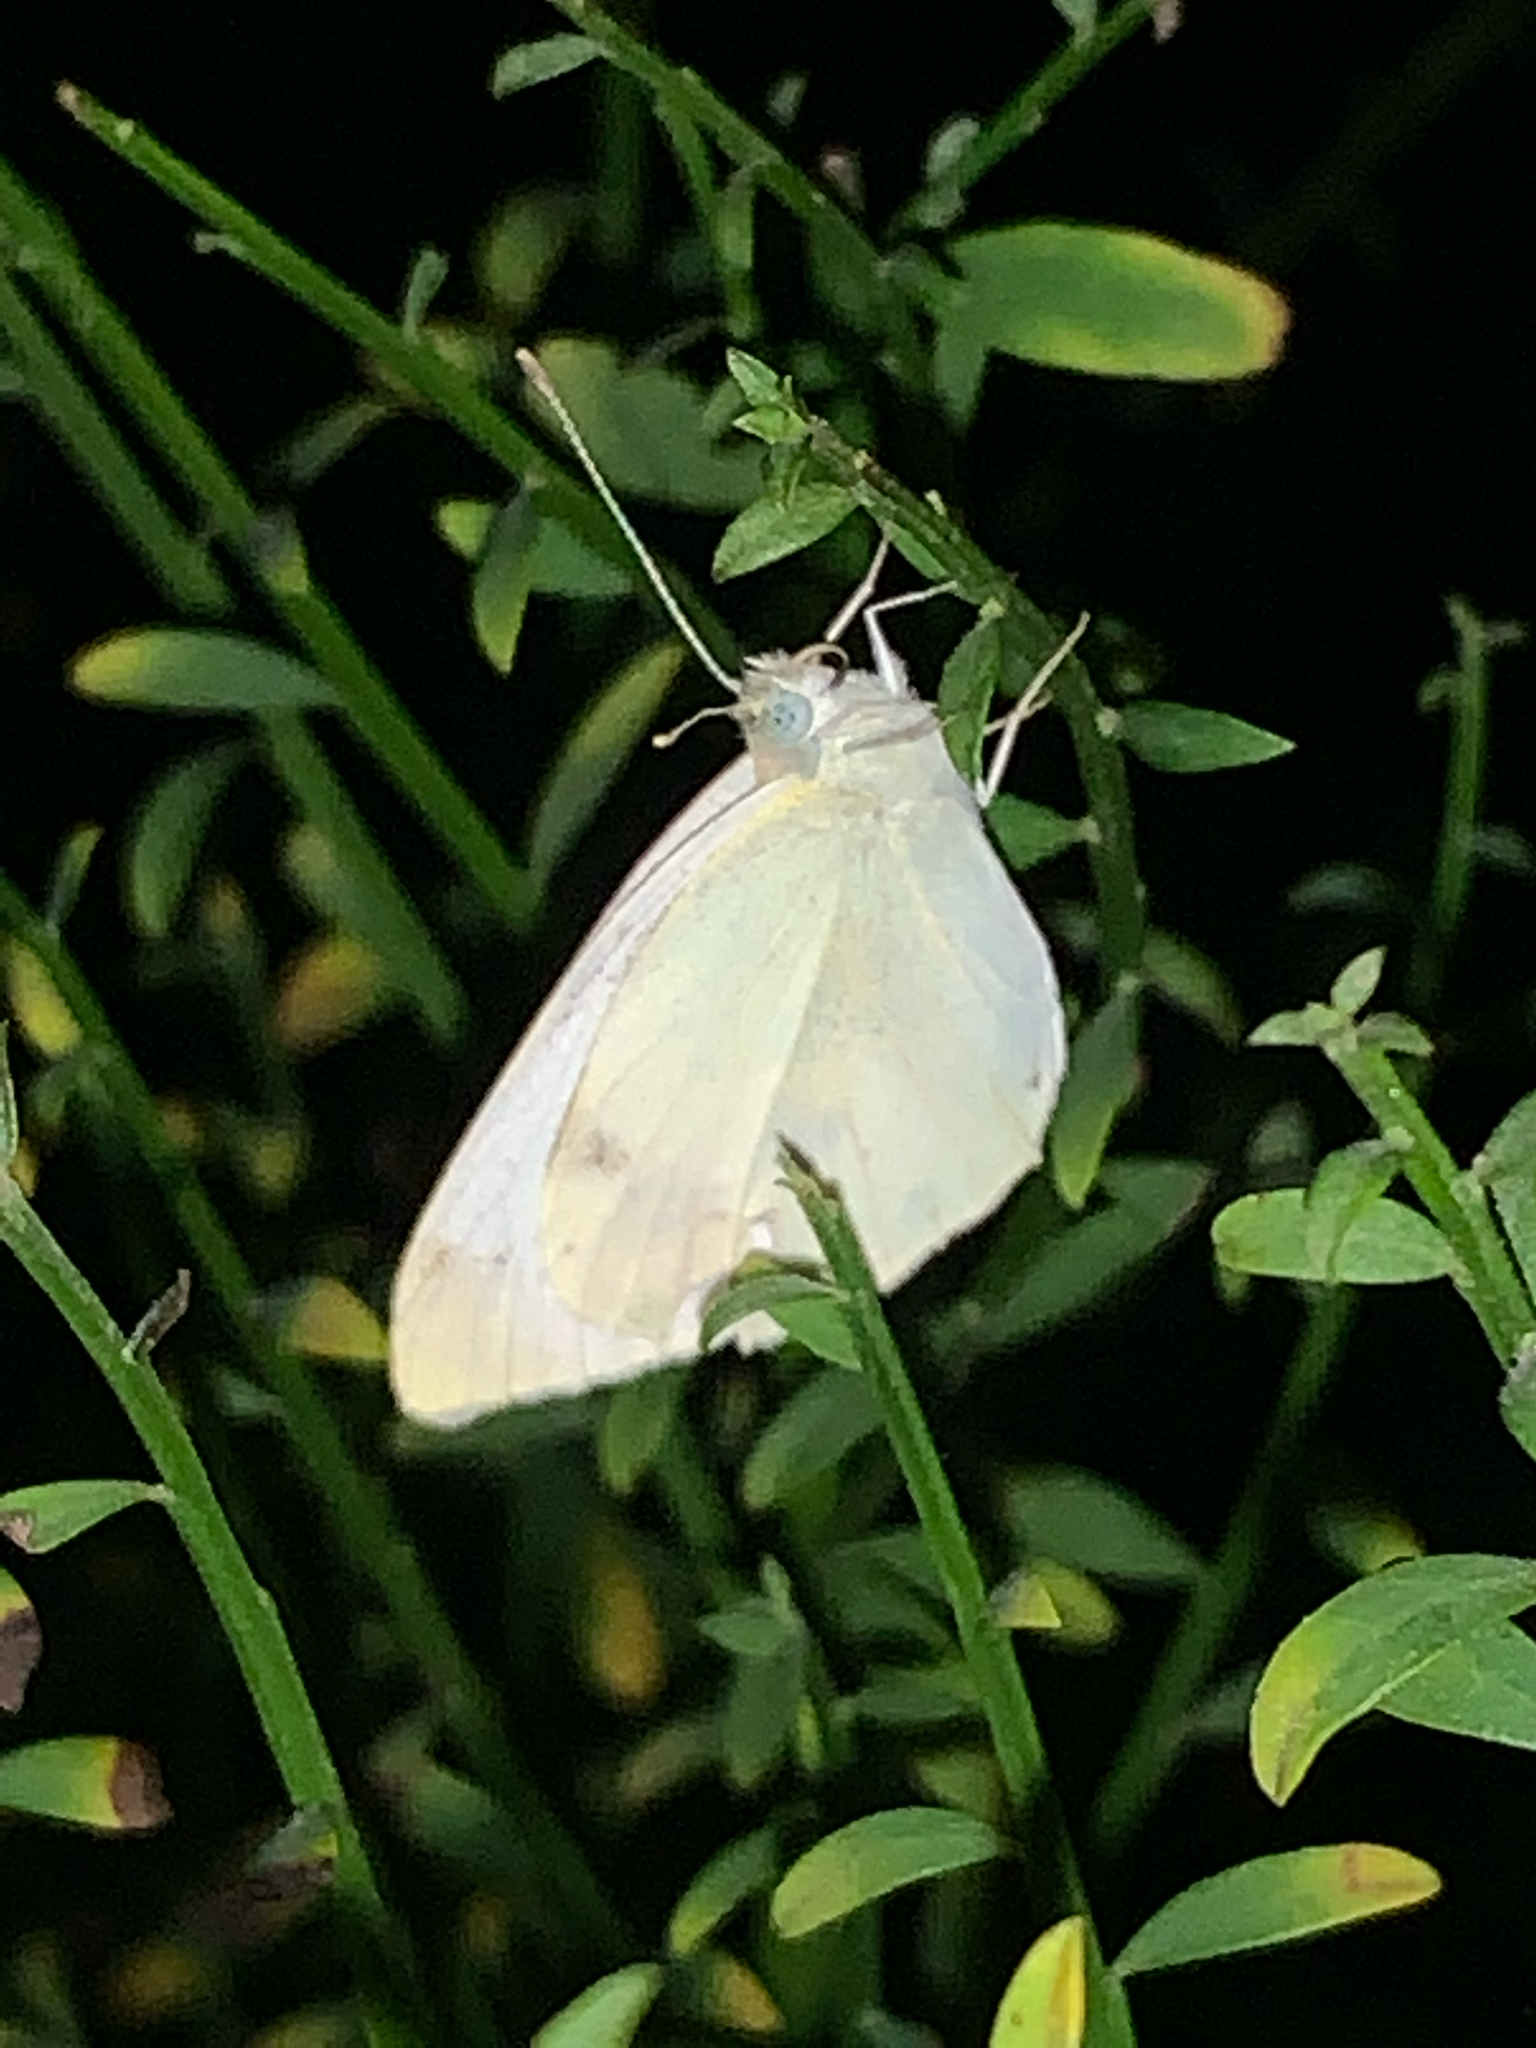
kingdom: Animalia
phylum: Arthropoda
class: Insecta
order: Lepidoptera
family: Pieridae
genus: Pieris
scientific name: Pieris rapae
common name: Small white
